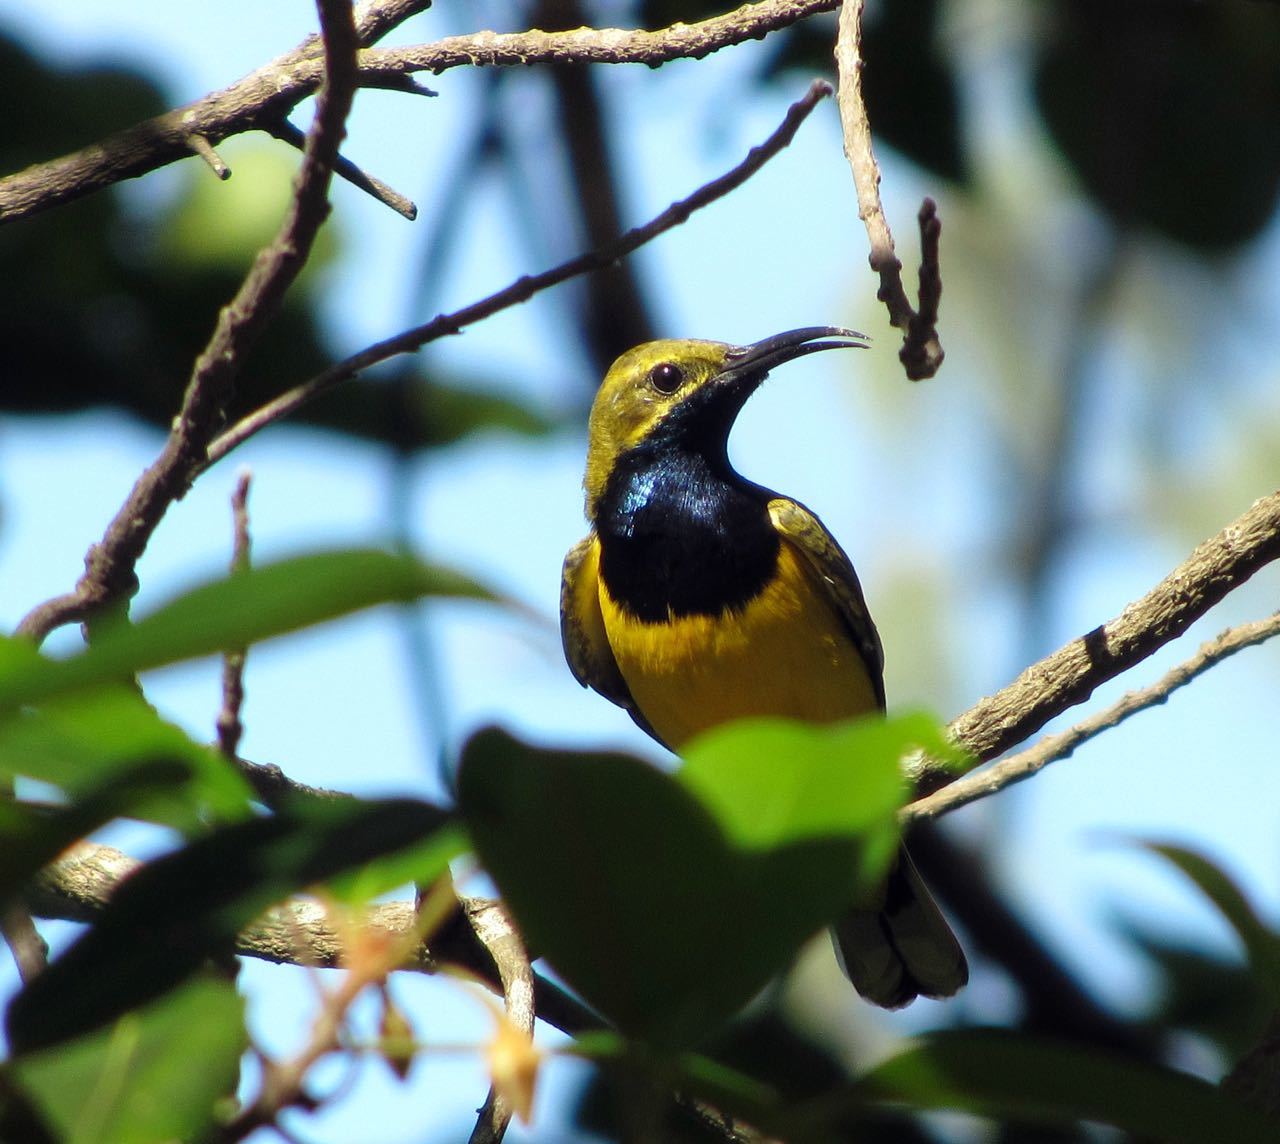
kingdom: Animalia
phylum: Chordata
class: Aves
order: Passeriformes
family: Nectariniidae
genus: Cinnyris
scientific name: Cinnyris
